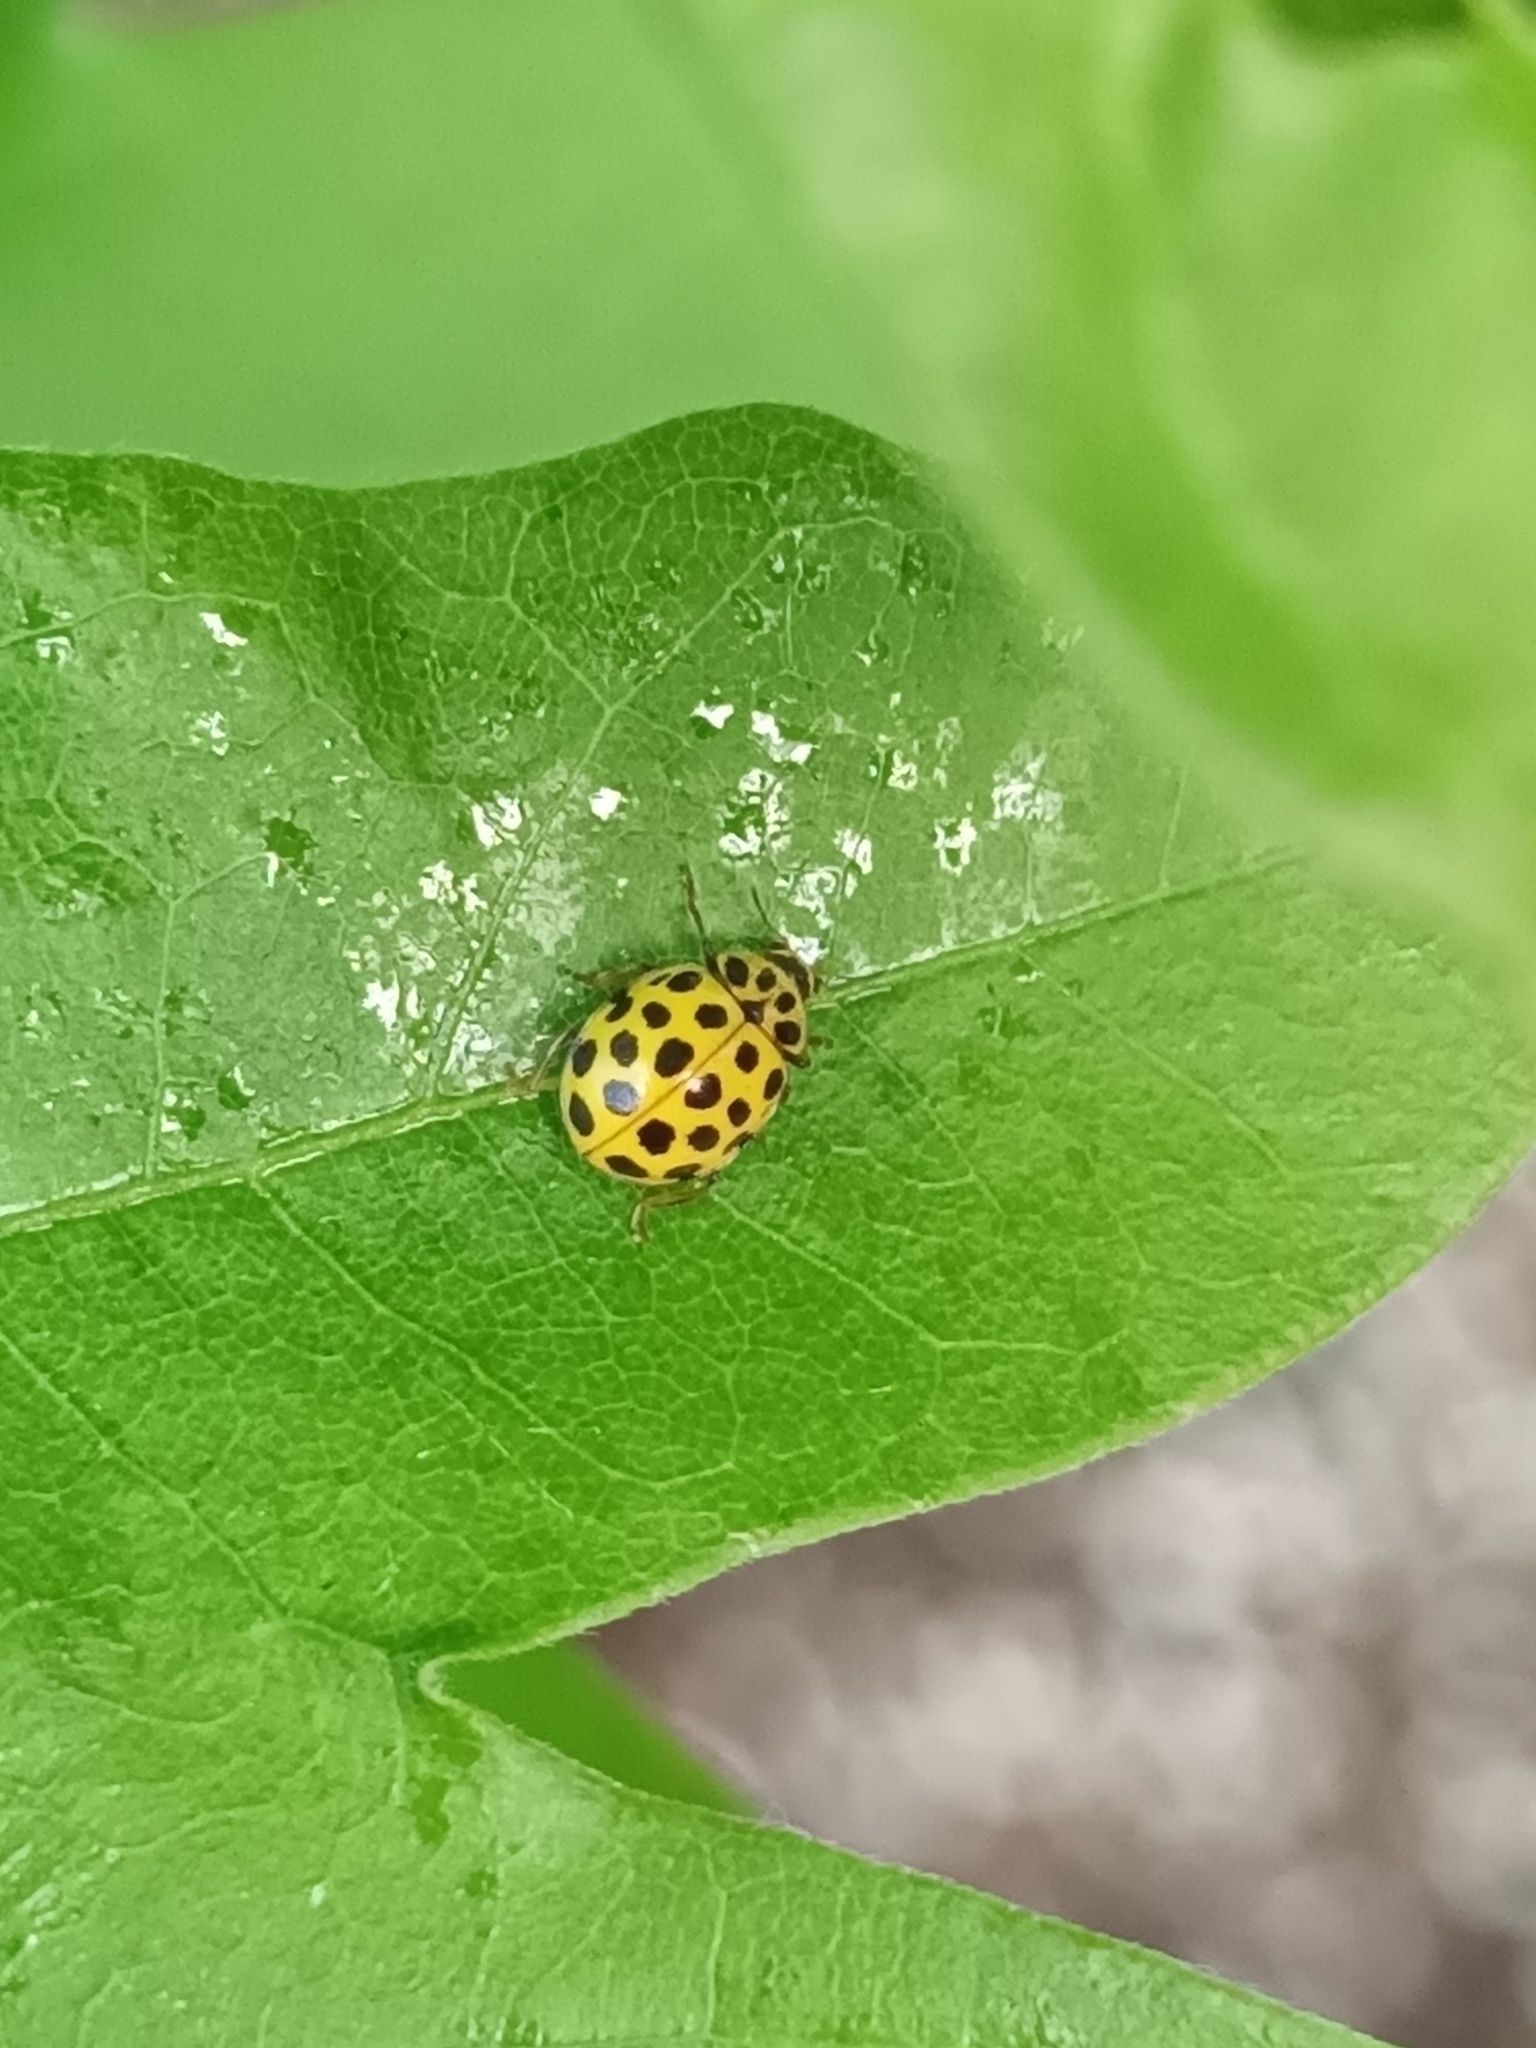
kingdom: Animalia
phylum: Arthropoda
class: Insecta
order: Coleoptera
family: Coccinellidae
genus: Psyllobora
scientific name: Psyllobora vigintiduopunctata
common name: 22-spot ladybird
